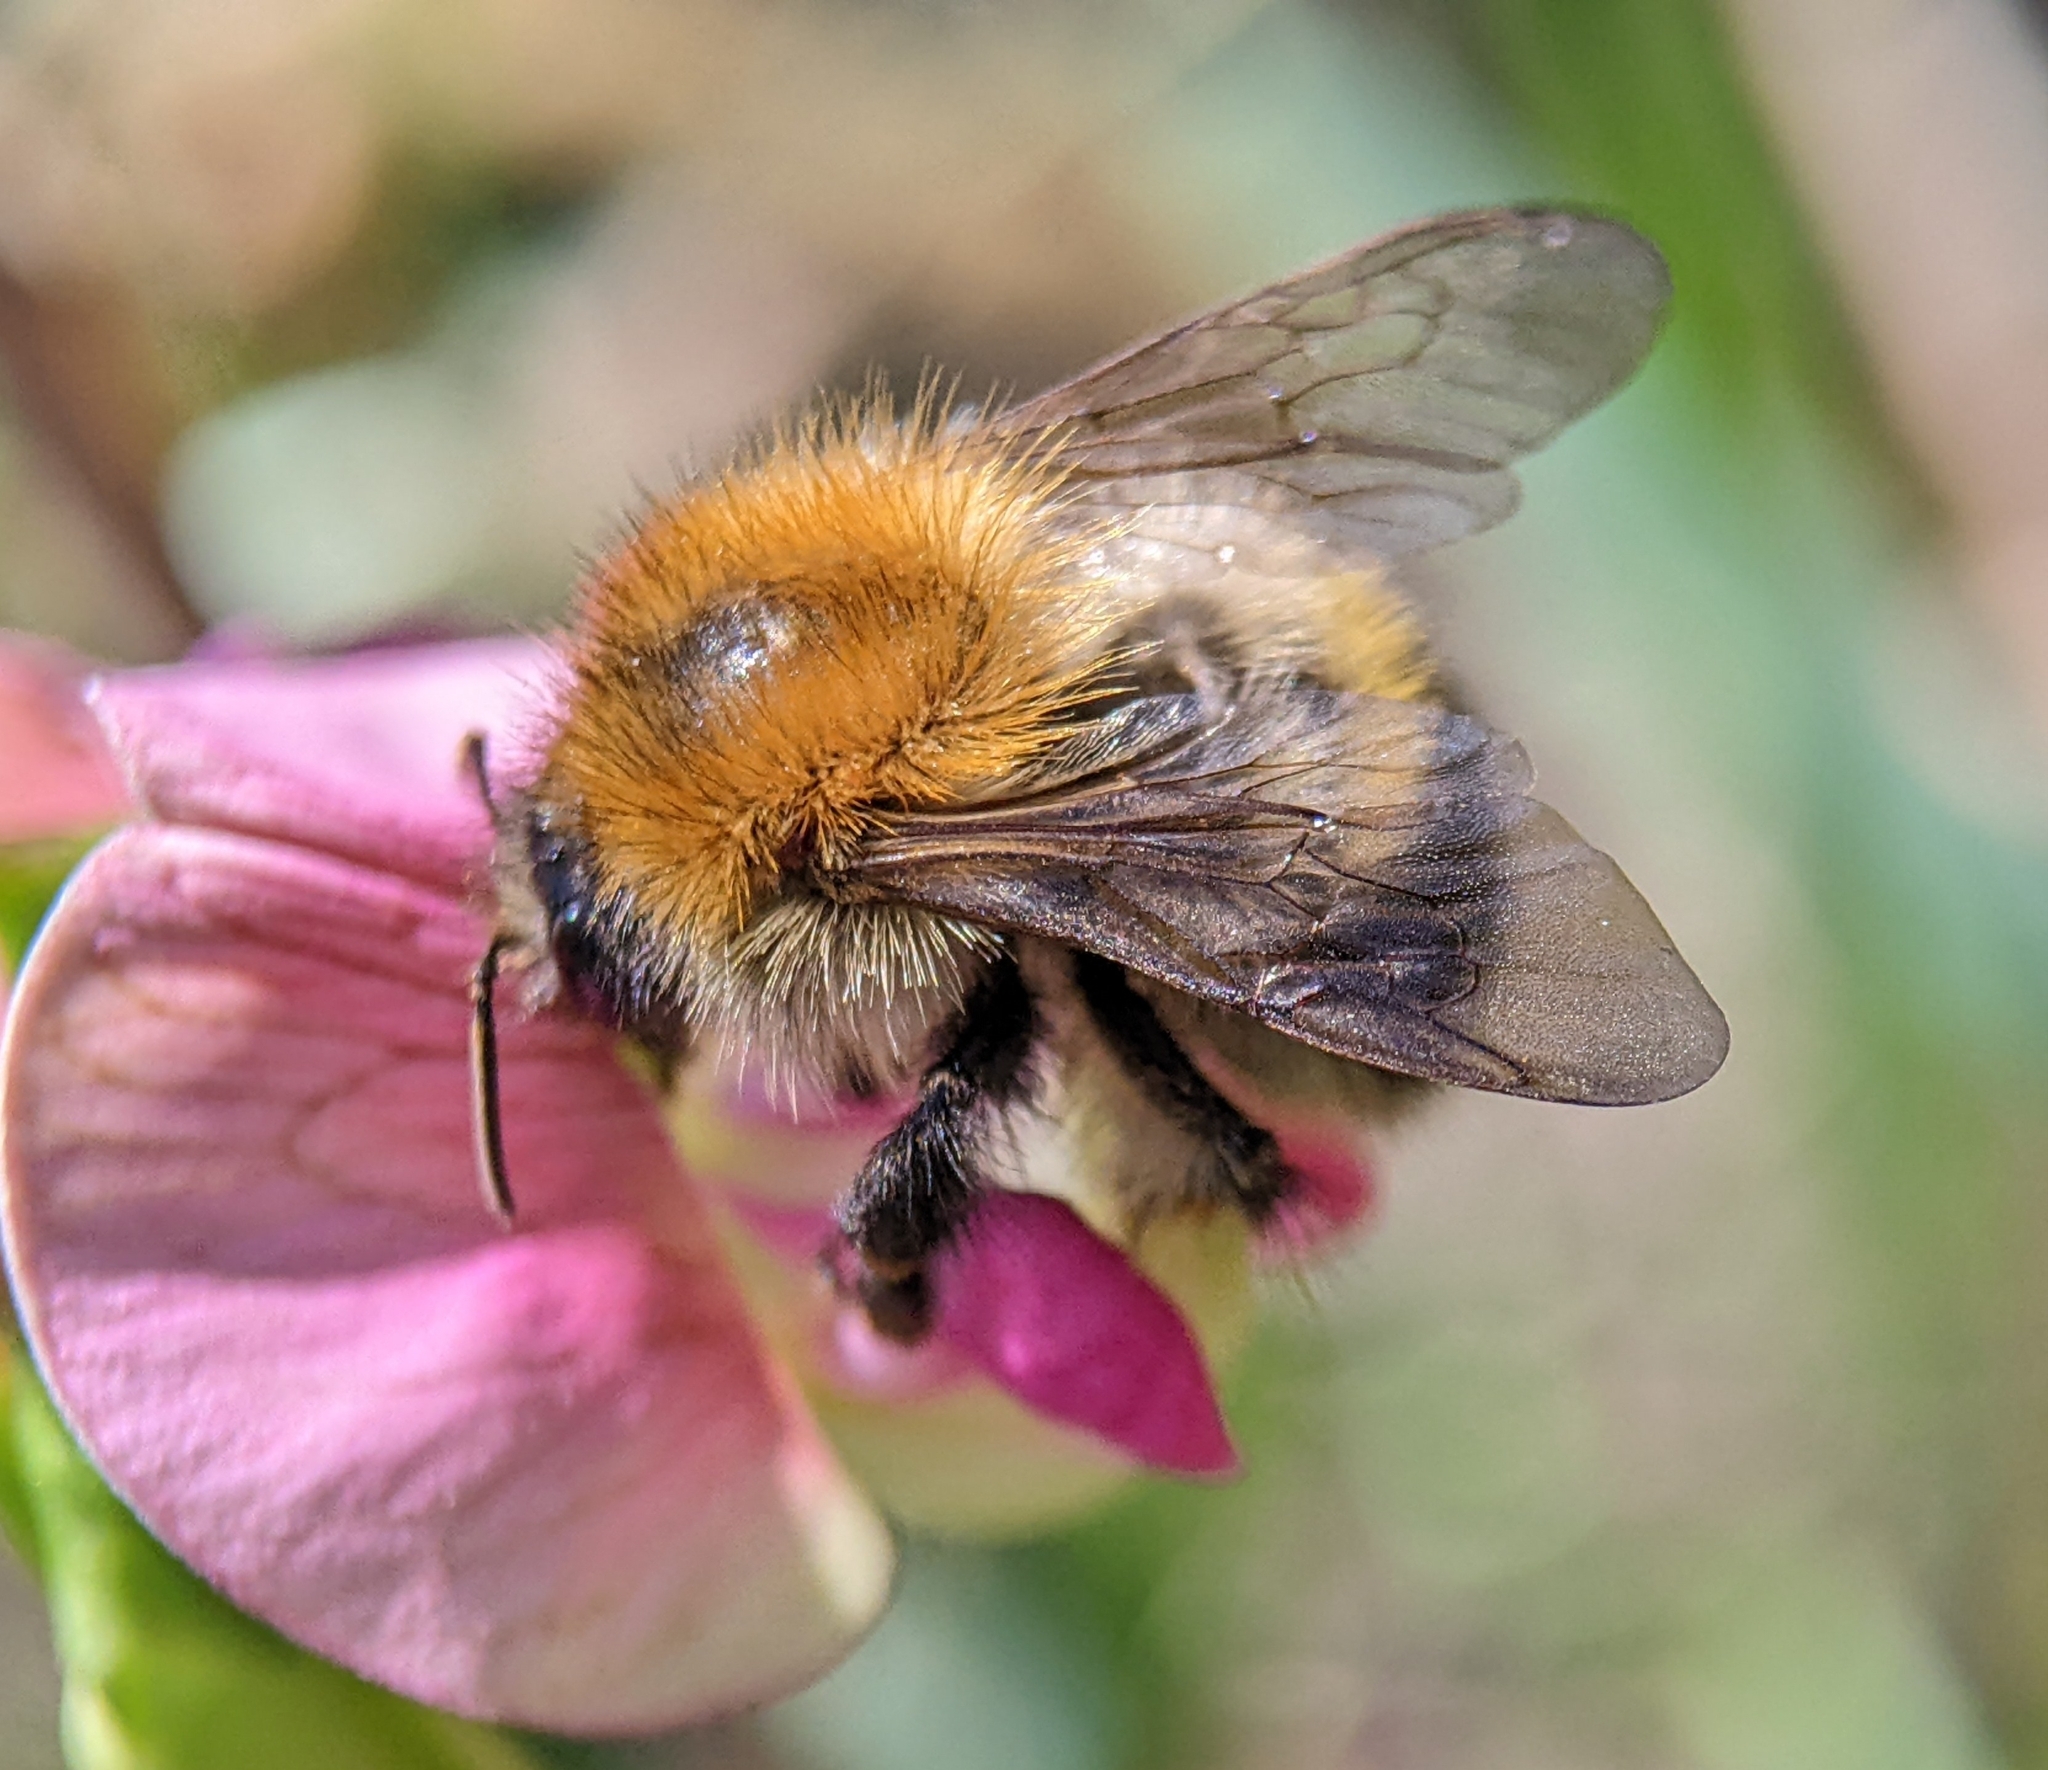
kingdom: Animalia
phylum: Arthropoda
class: Insecta
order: Hymenoptera
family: Apidae
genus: Bombus
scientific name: Bombus pascuorum
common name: Common carder bee
